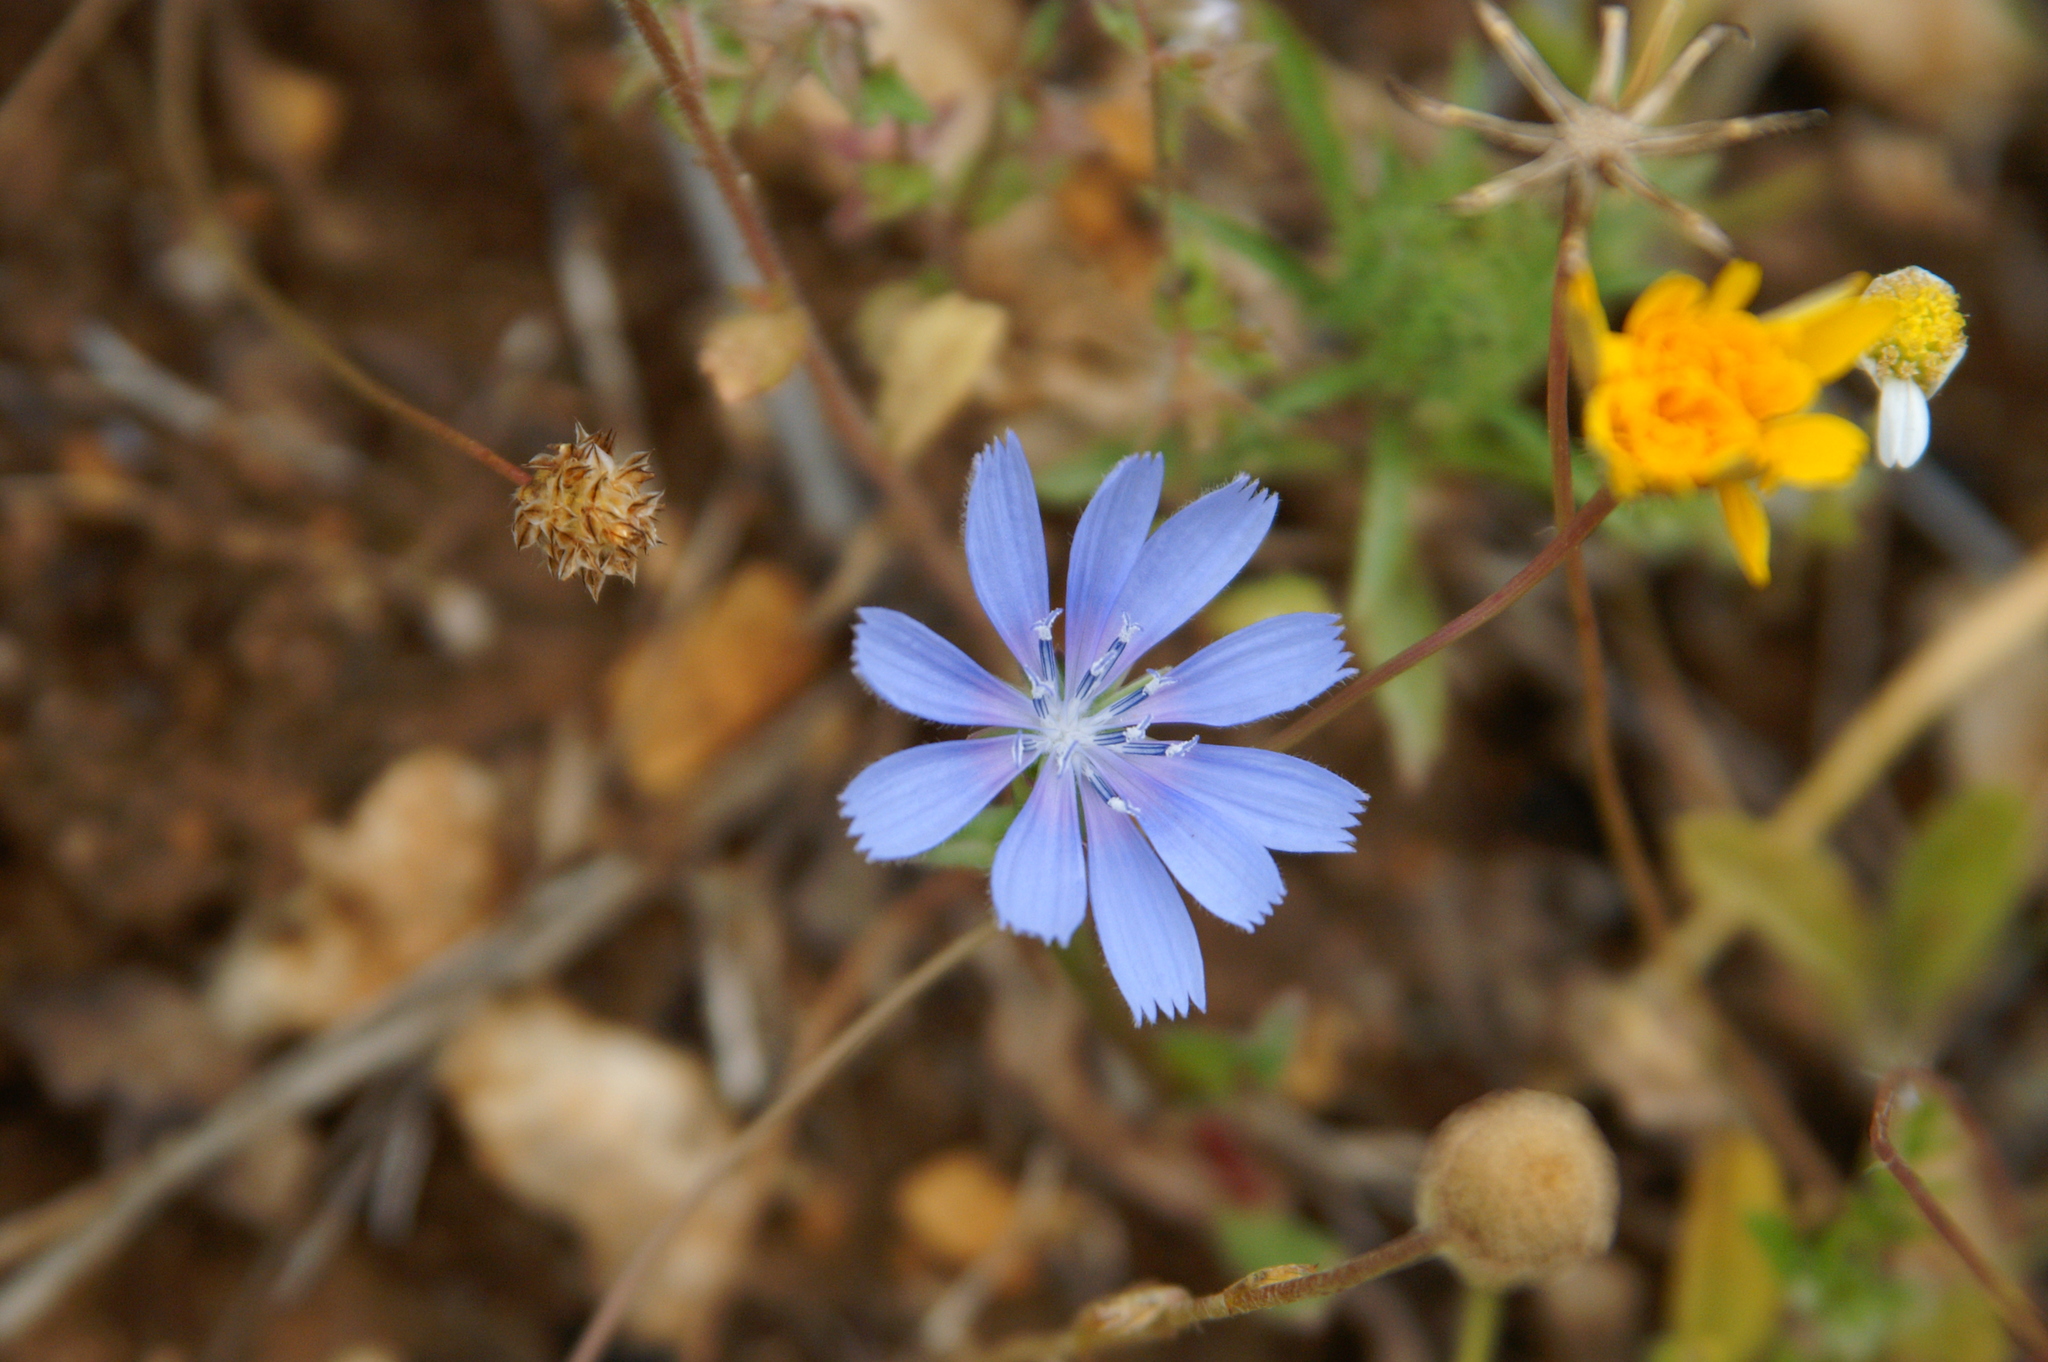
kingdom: Plantae
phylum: Tracheophyta
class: Magnoliopsida
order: Asterales
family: Asteraceae
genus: Cichorium
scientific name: Cichorium intybus
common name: Chicory
